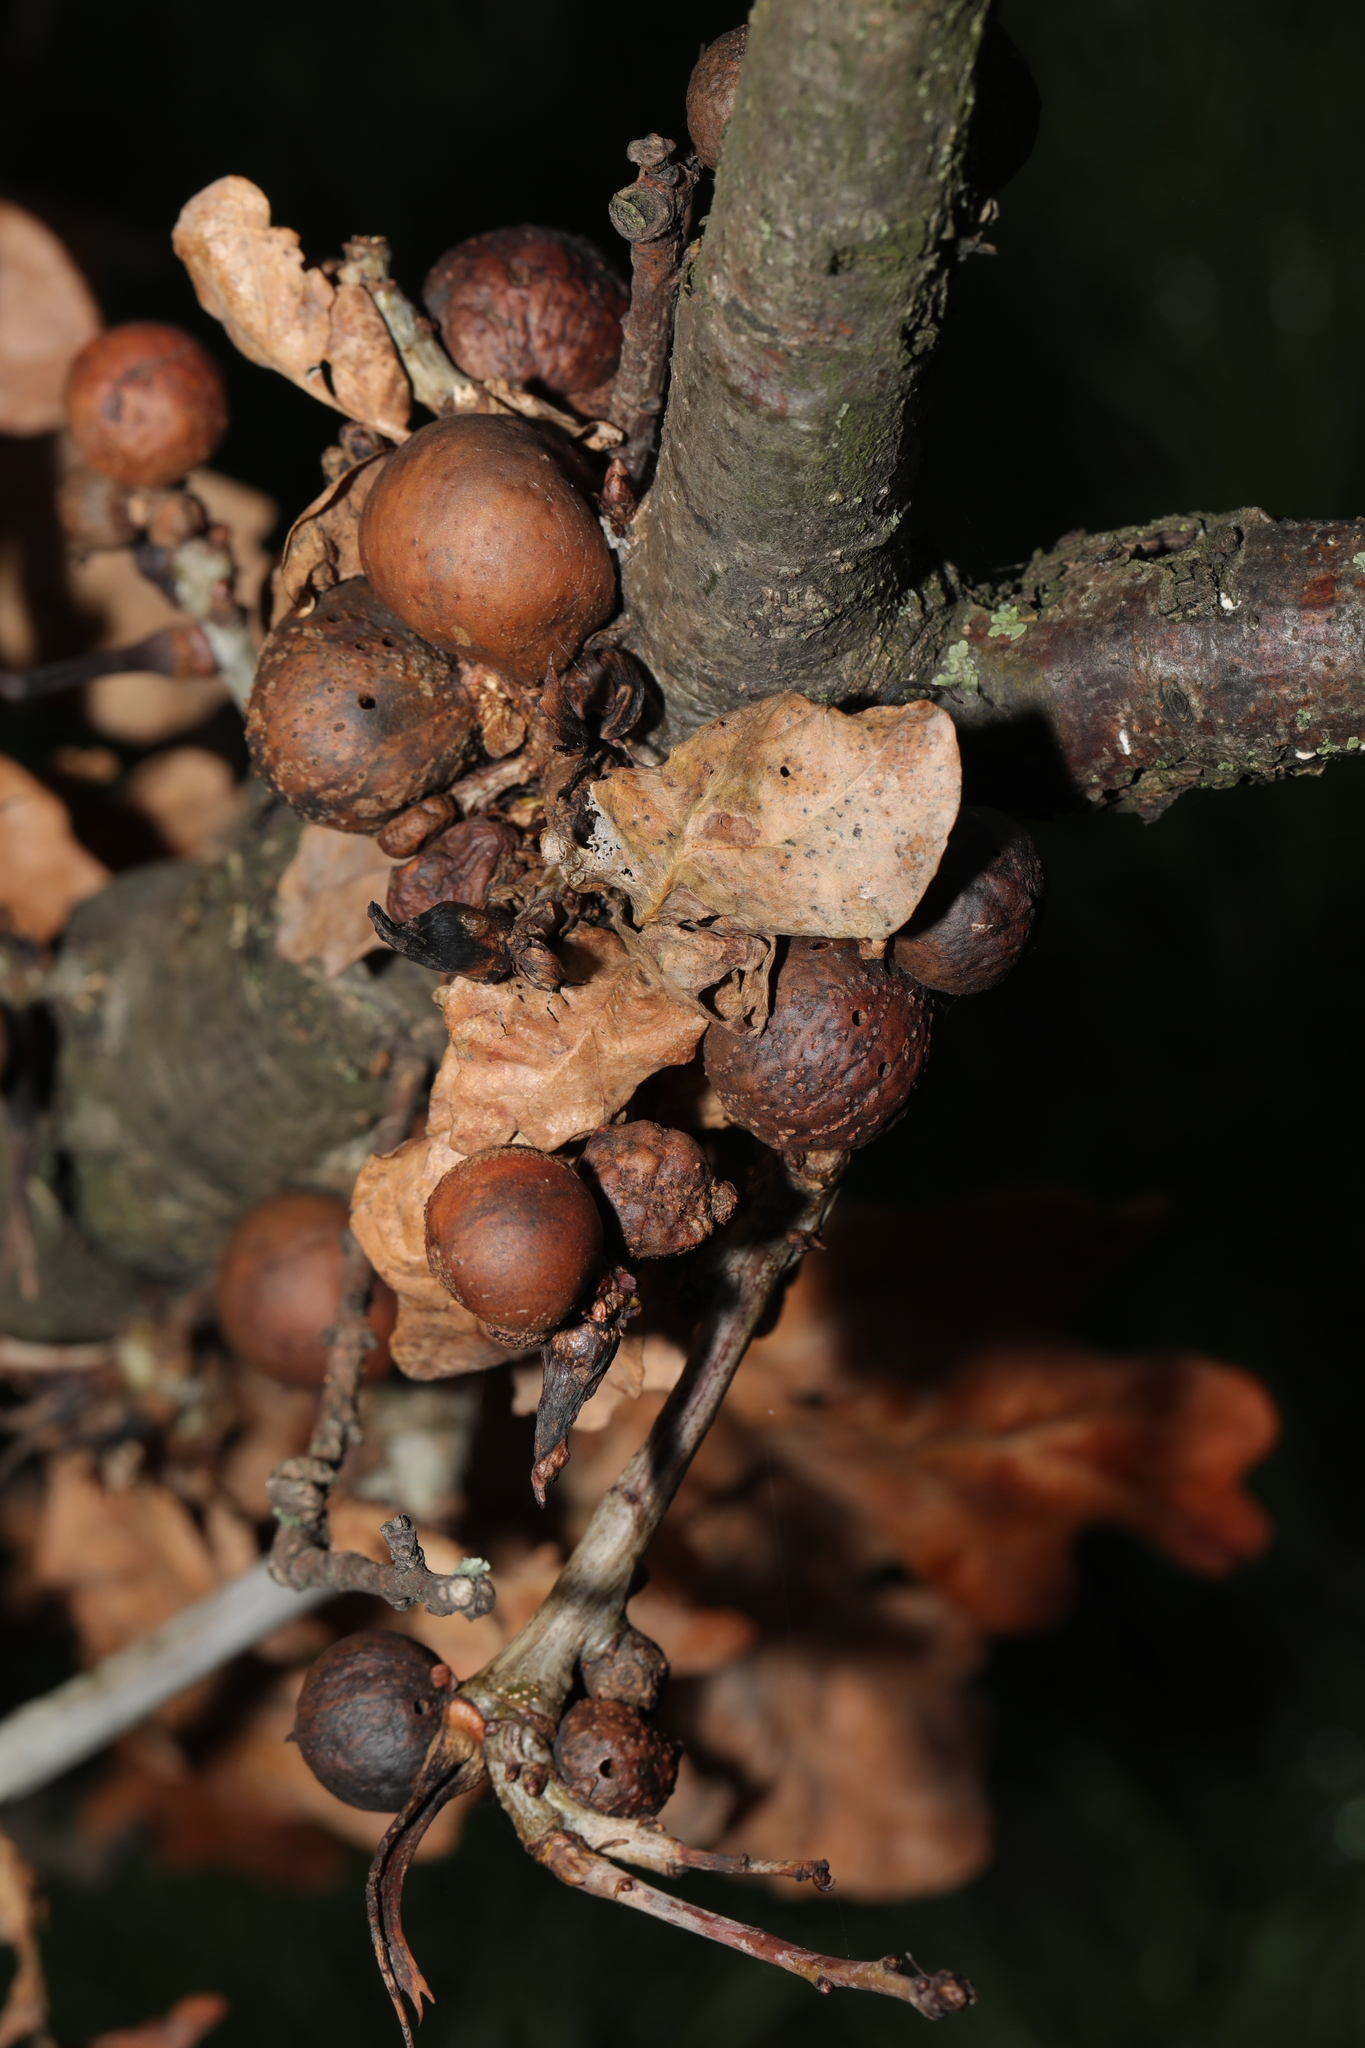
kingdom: Animalia
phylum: Arthropoda
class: Insecta
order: Hymenoptera
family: Cynipidae
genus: Andricus
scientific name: Andricus kollari
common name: Marble gall
